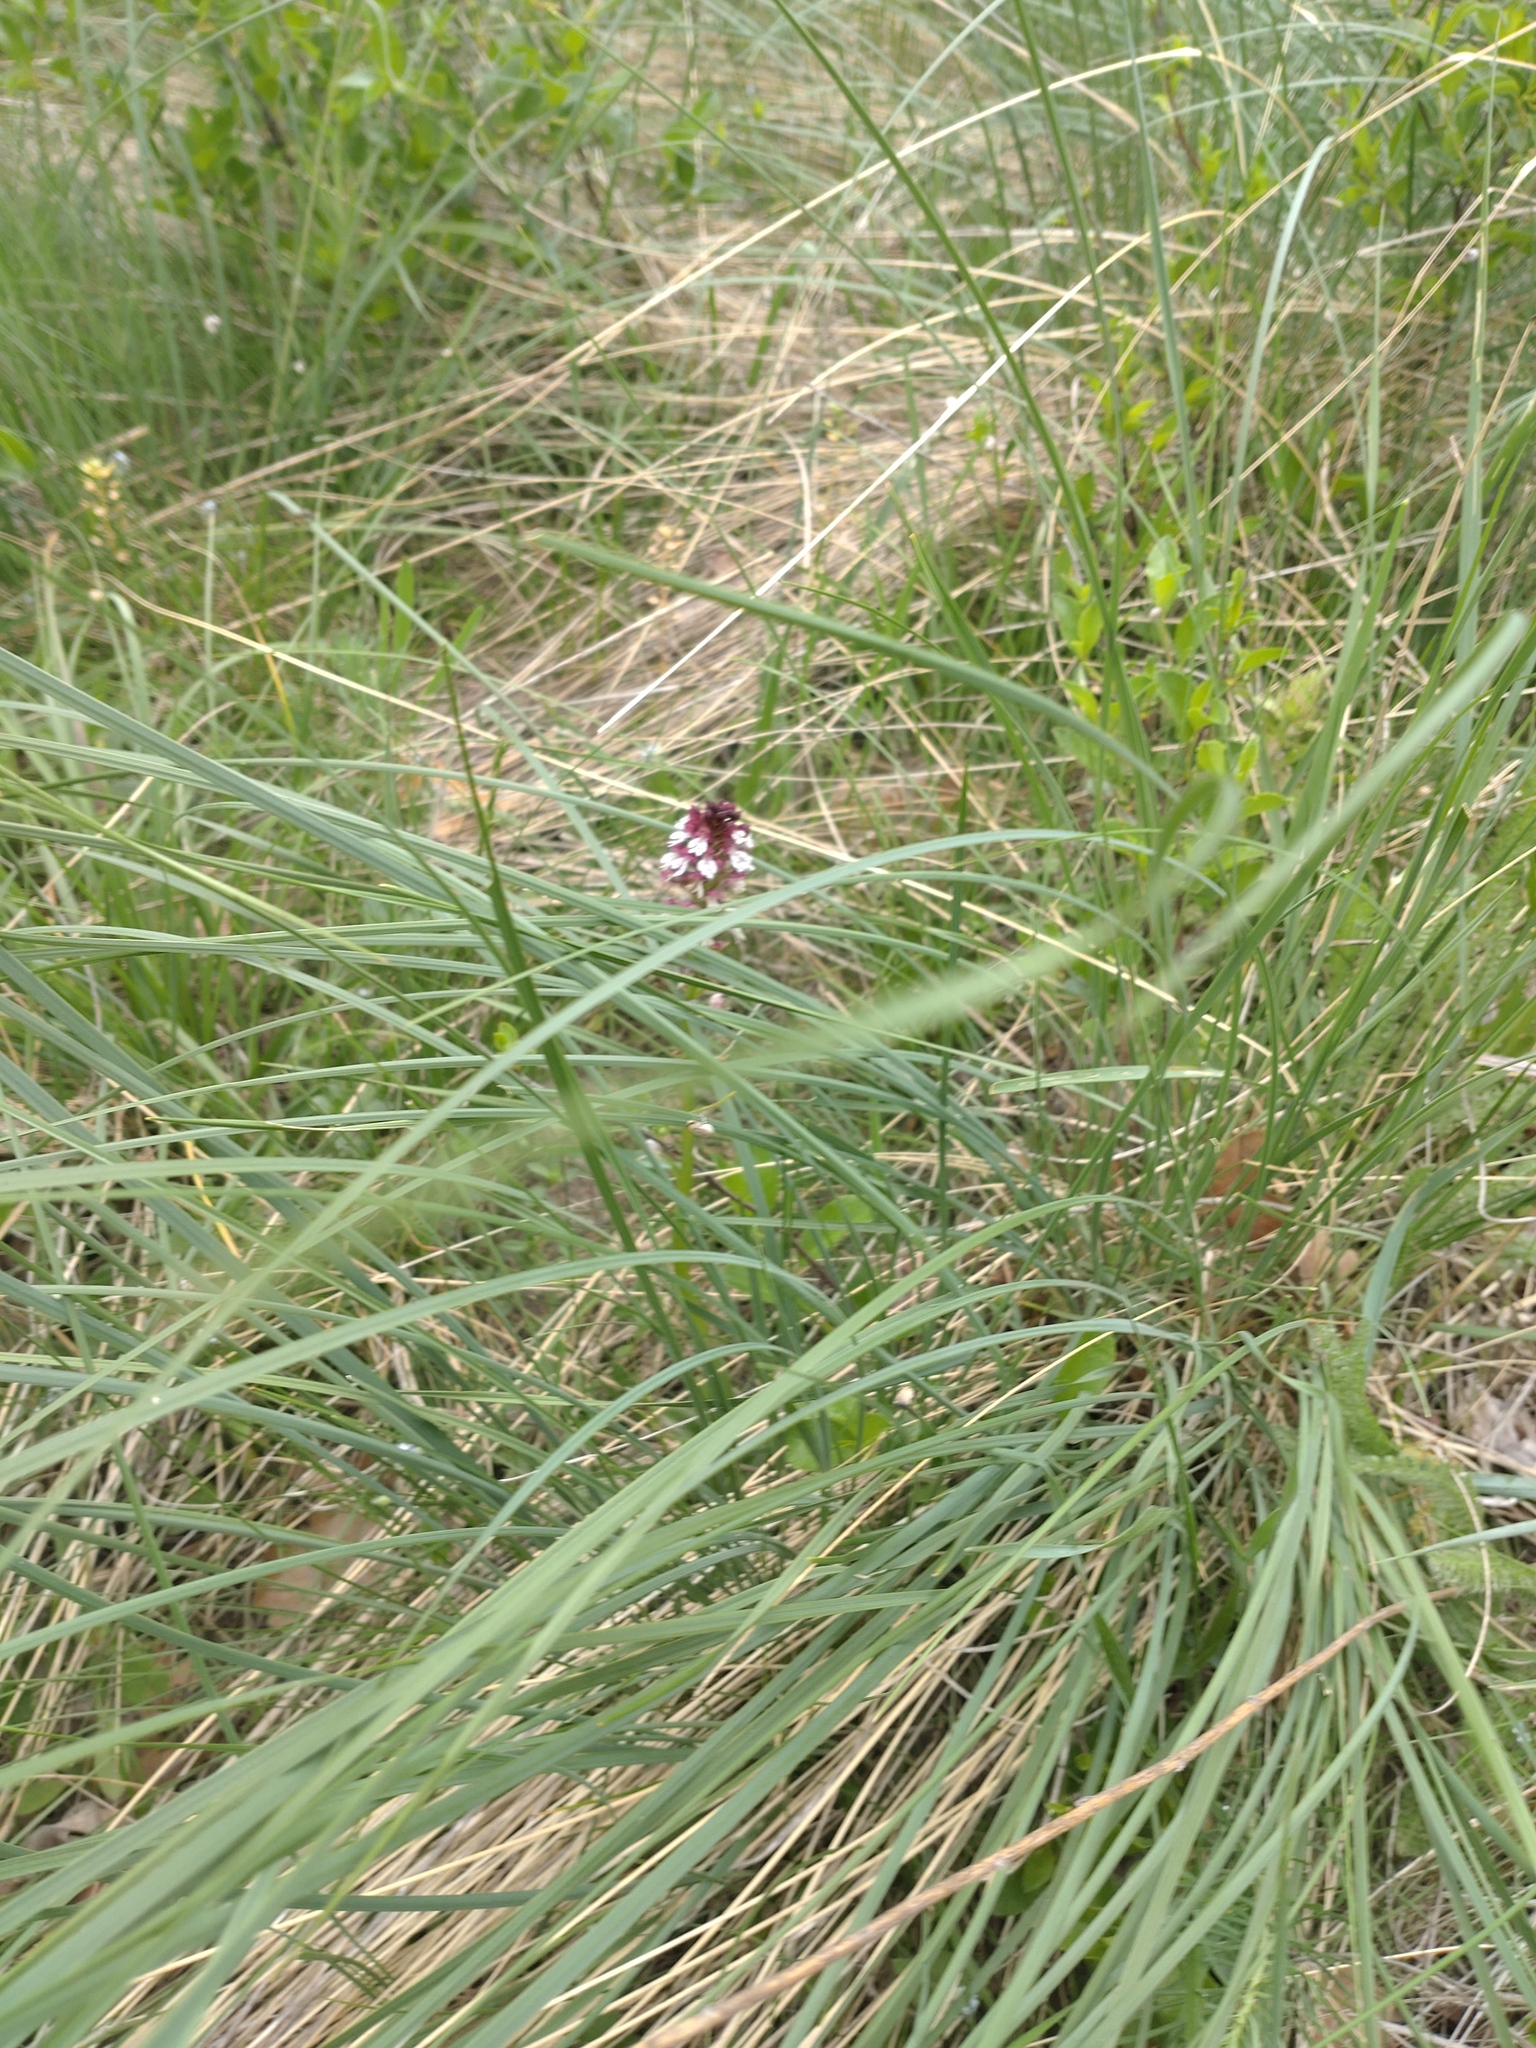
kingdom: Plantae
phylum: Tracheophyta
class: Liliopsida
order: Asparagales
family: Orchidaceae
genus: Neotinea
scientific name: Neotinea ustulata
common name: Burnt orchid
